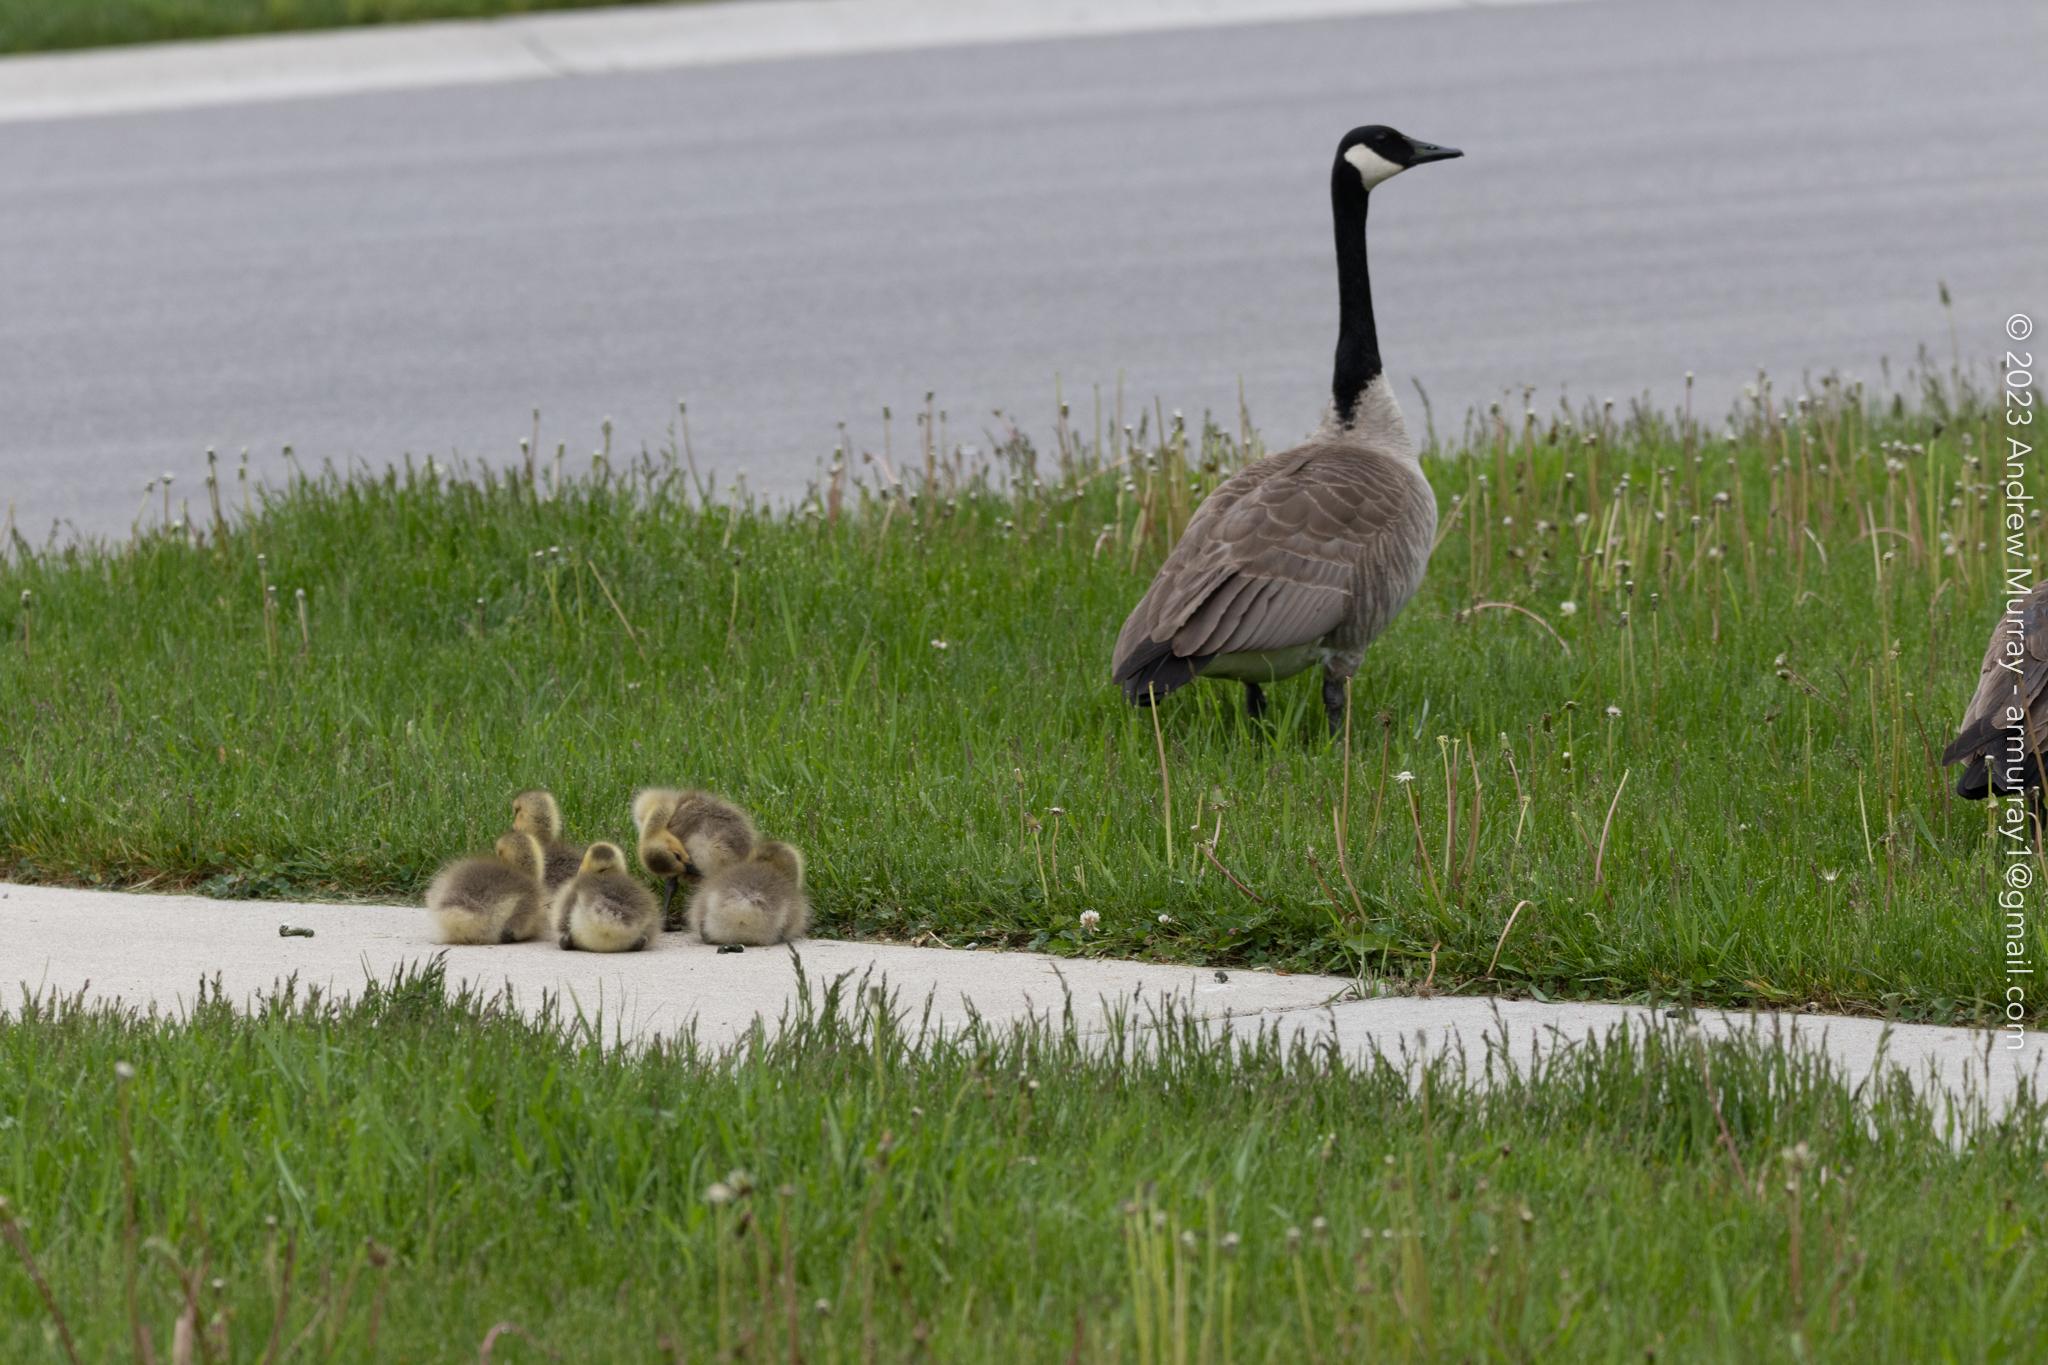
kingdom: Animalia
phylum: Chordata
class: Aves
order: Anseriformes
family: Anatidae
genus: Branta
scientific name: Branta canadensis
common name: Canada goose
